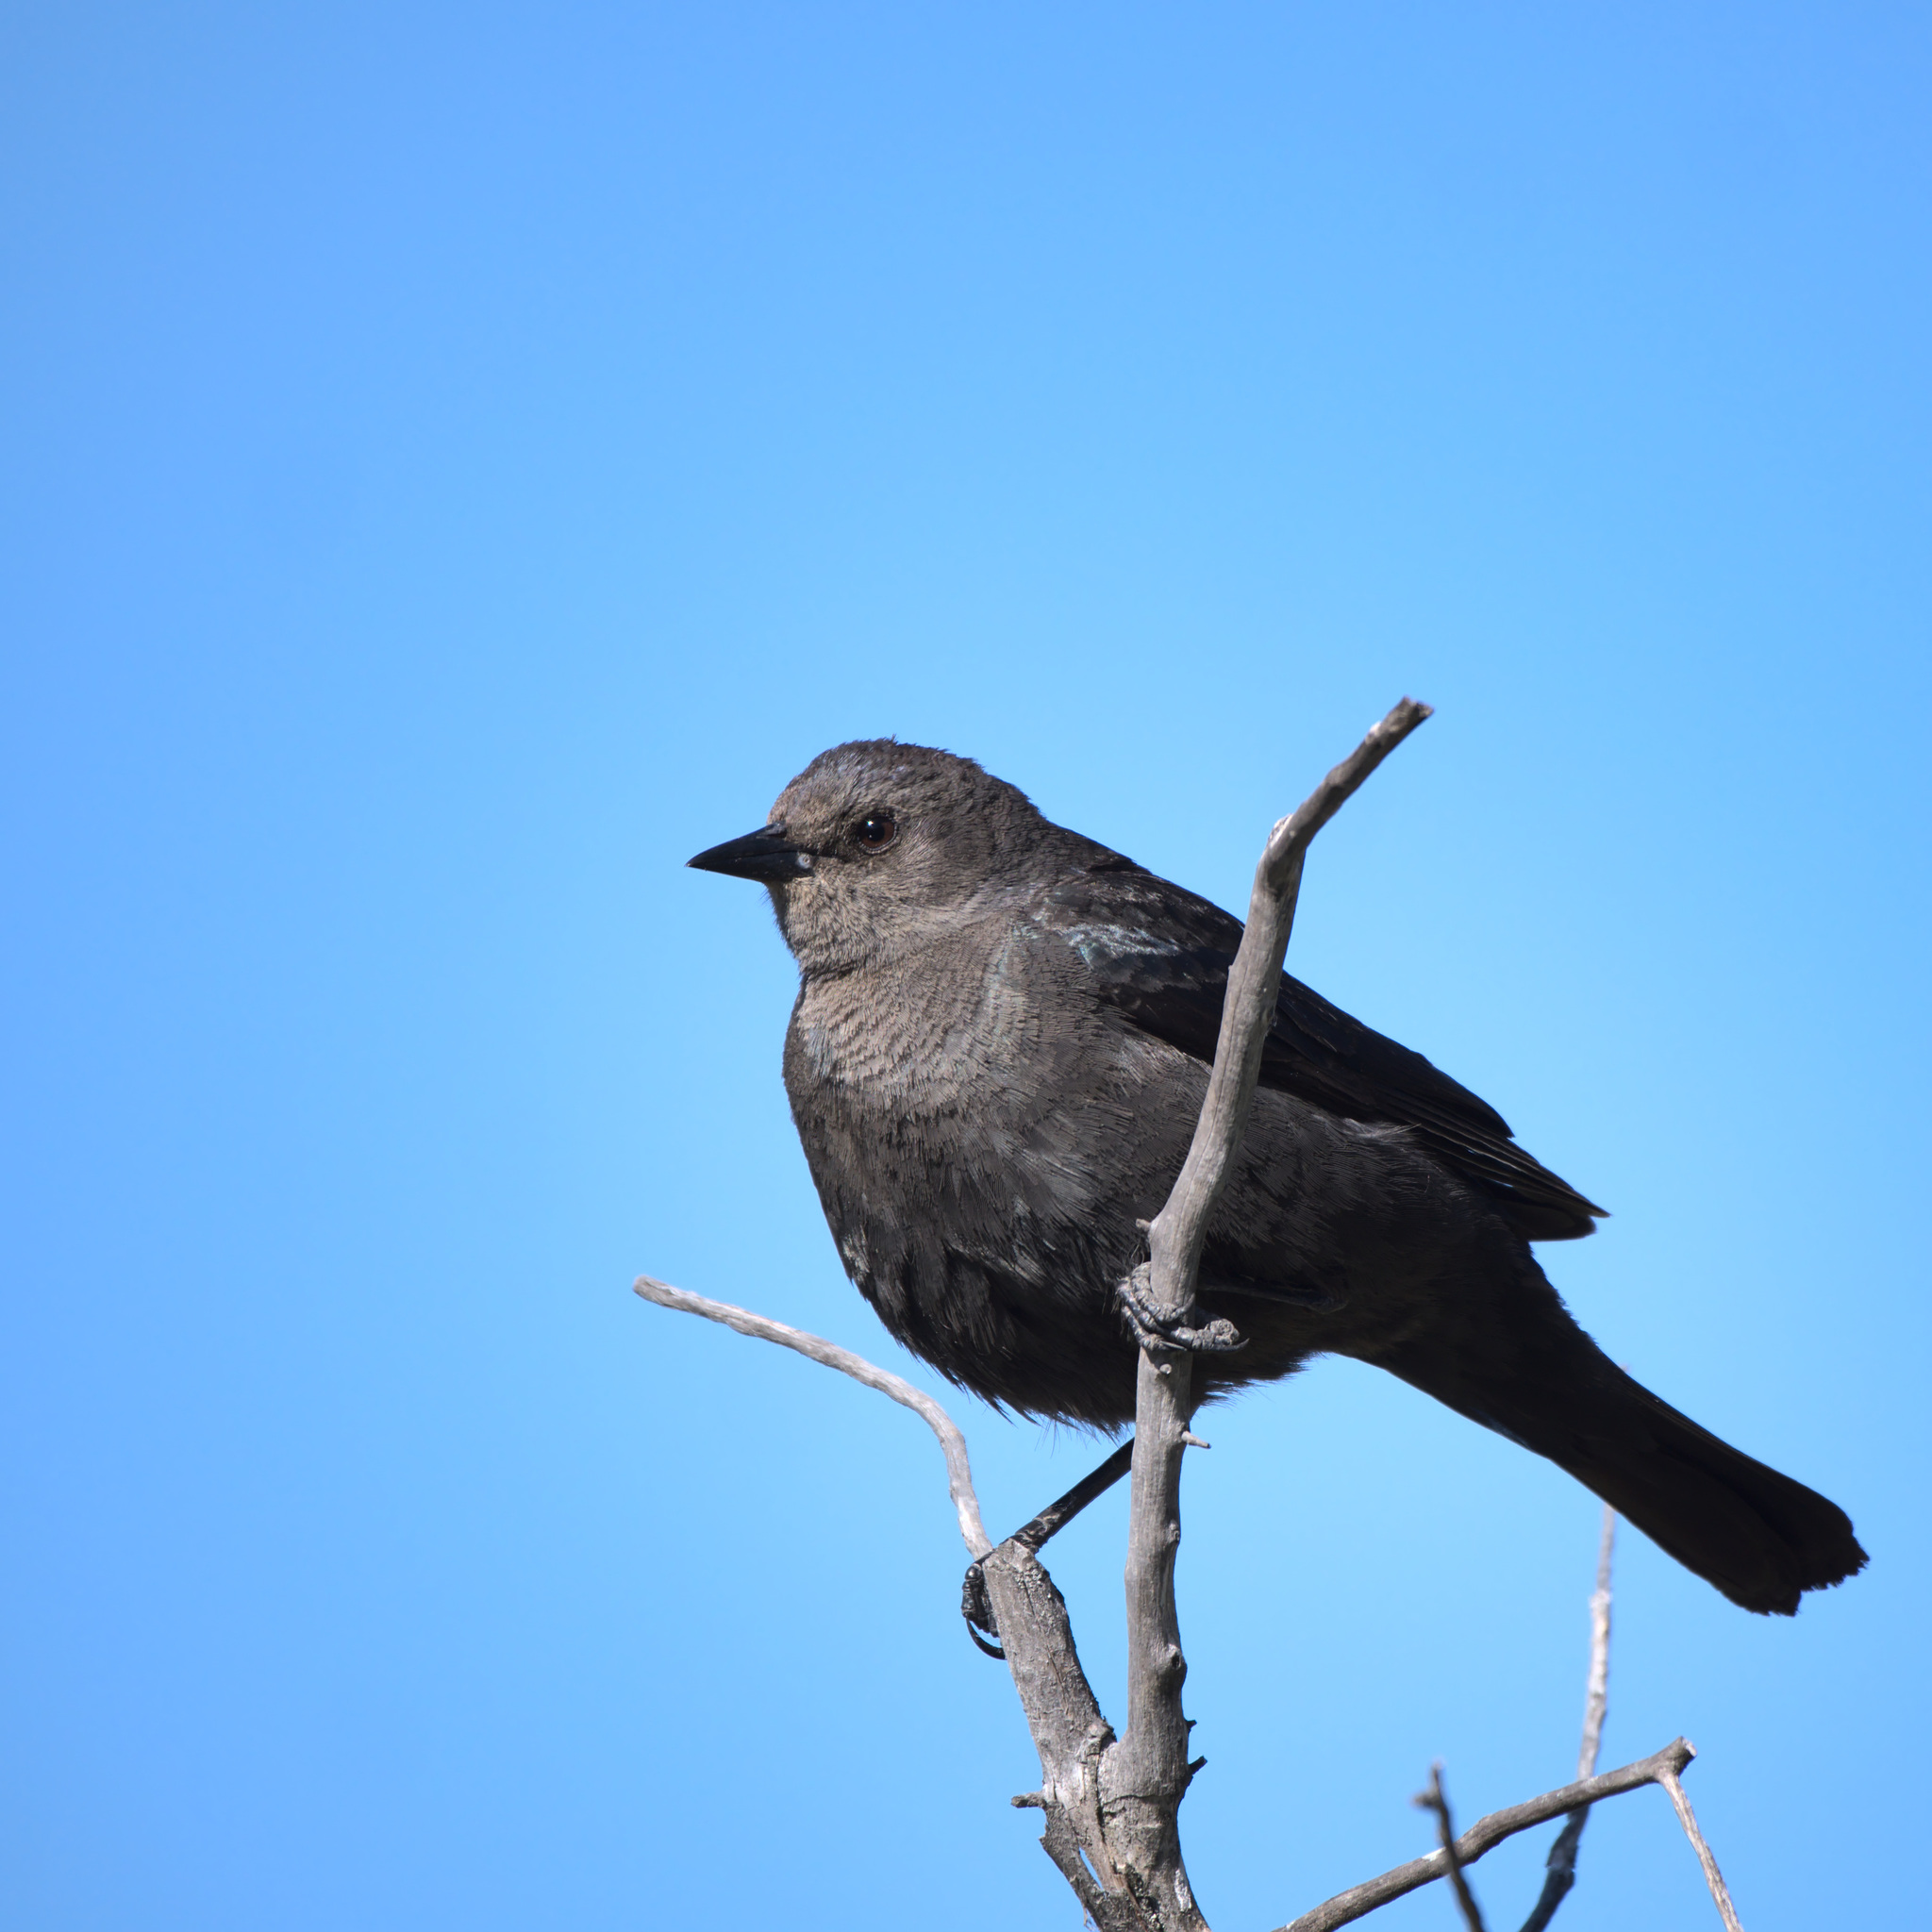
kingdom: Animalia
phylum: Chordata
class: Aves
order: Passeriformes
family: Icteridae
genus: Euphagus
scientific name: Euphagus cyanocephalus
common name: Brewer's blackbird
